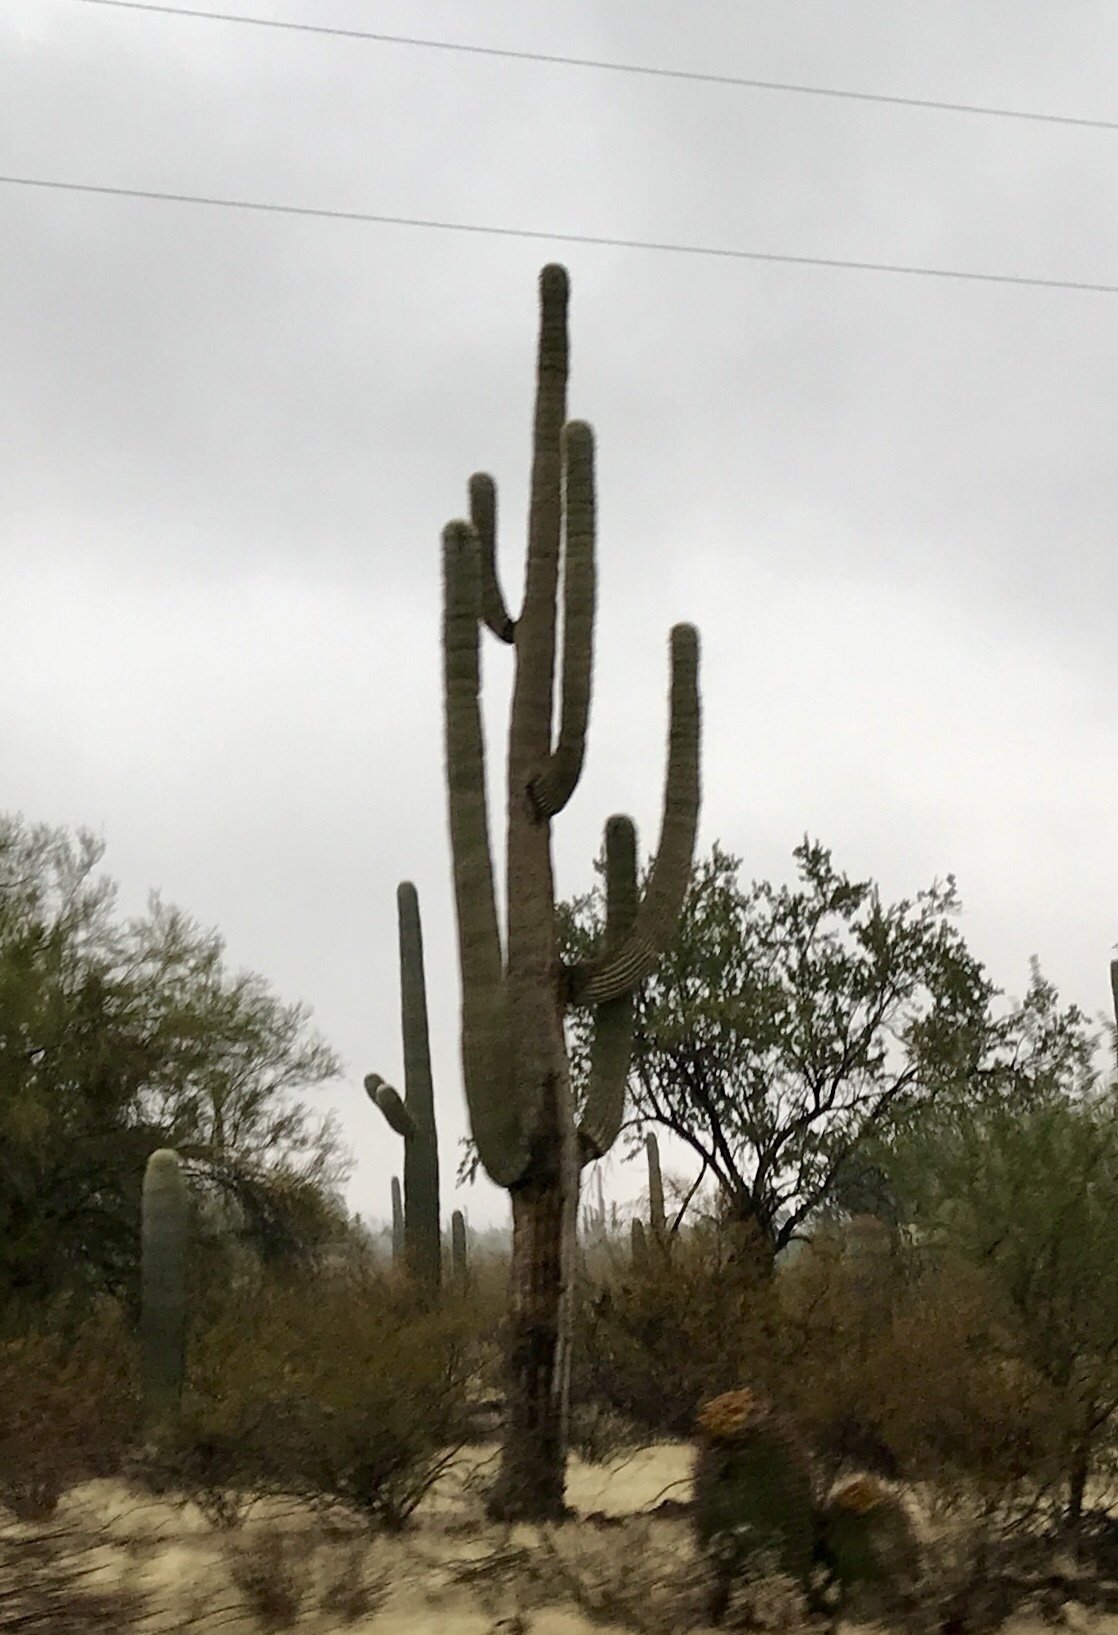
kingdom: Plantae
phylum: Tracheophyta
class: Magnoliopsida
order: Caryophyllales
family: Cactaceae
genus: Carnegiea
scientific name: Carnegiea gigantea
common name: Saguaro
